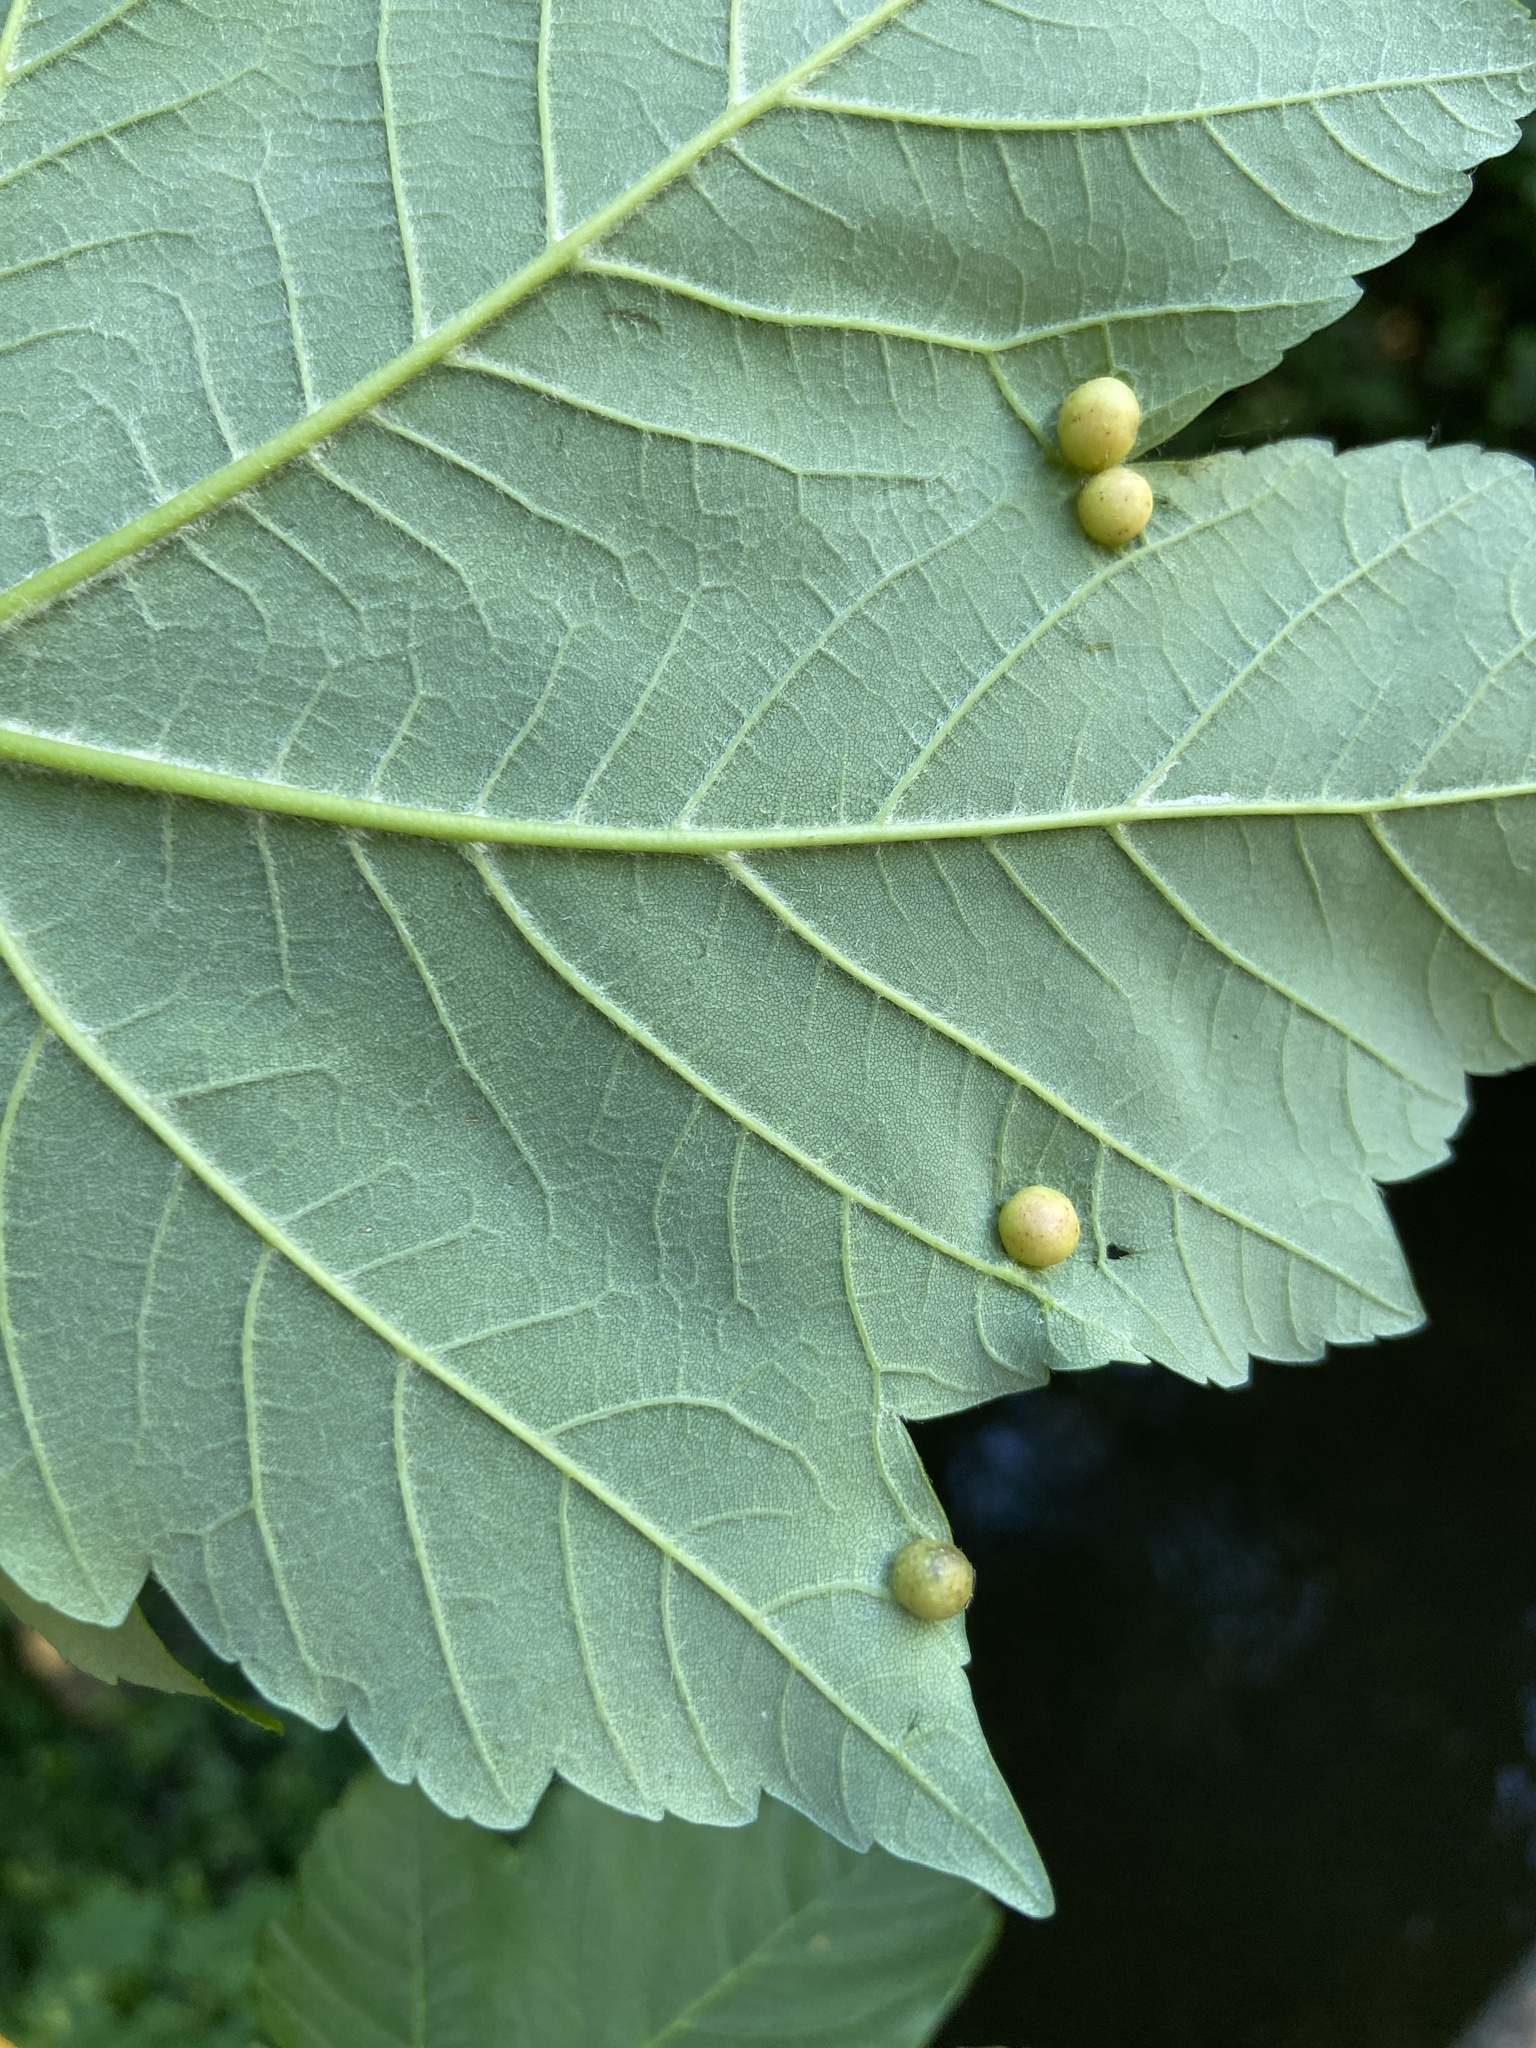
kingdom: Animalia
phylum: Arthropoda
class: Insecta
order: Hymenoptera
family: Cynipidae
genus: Pediaspis
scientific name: Pediaspis aceris
